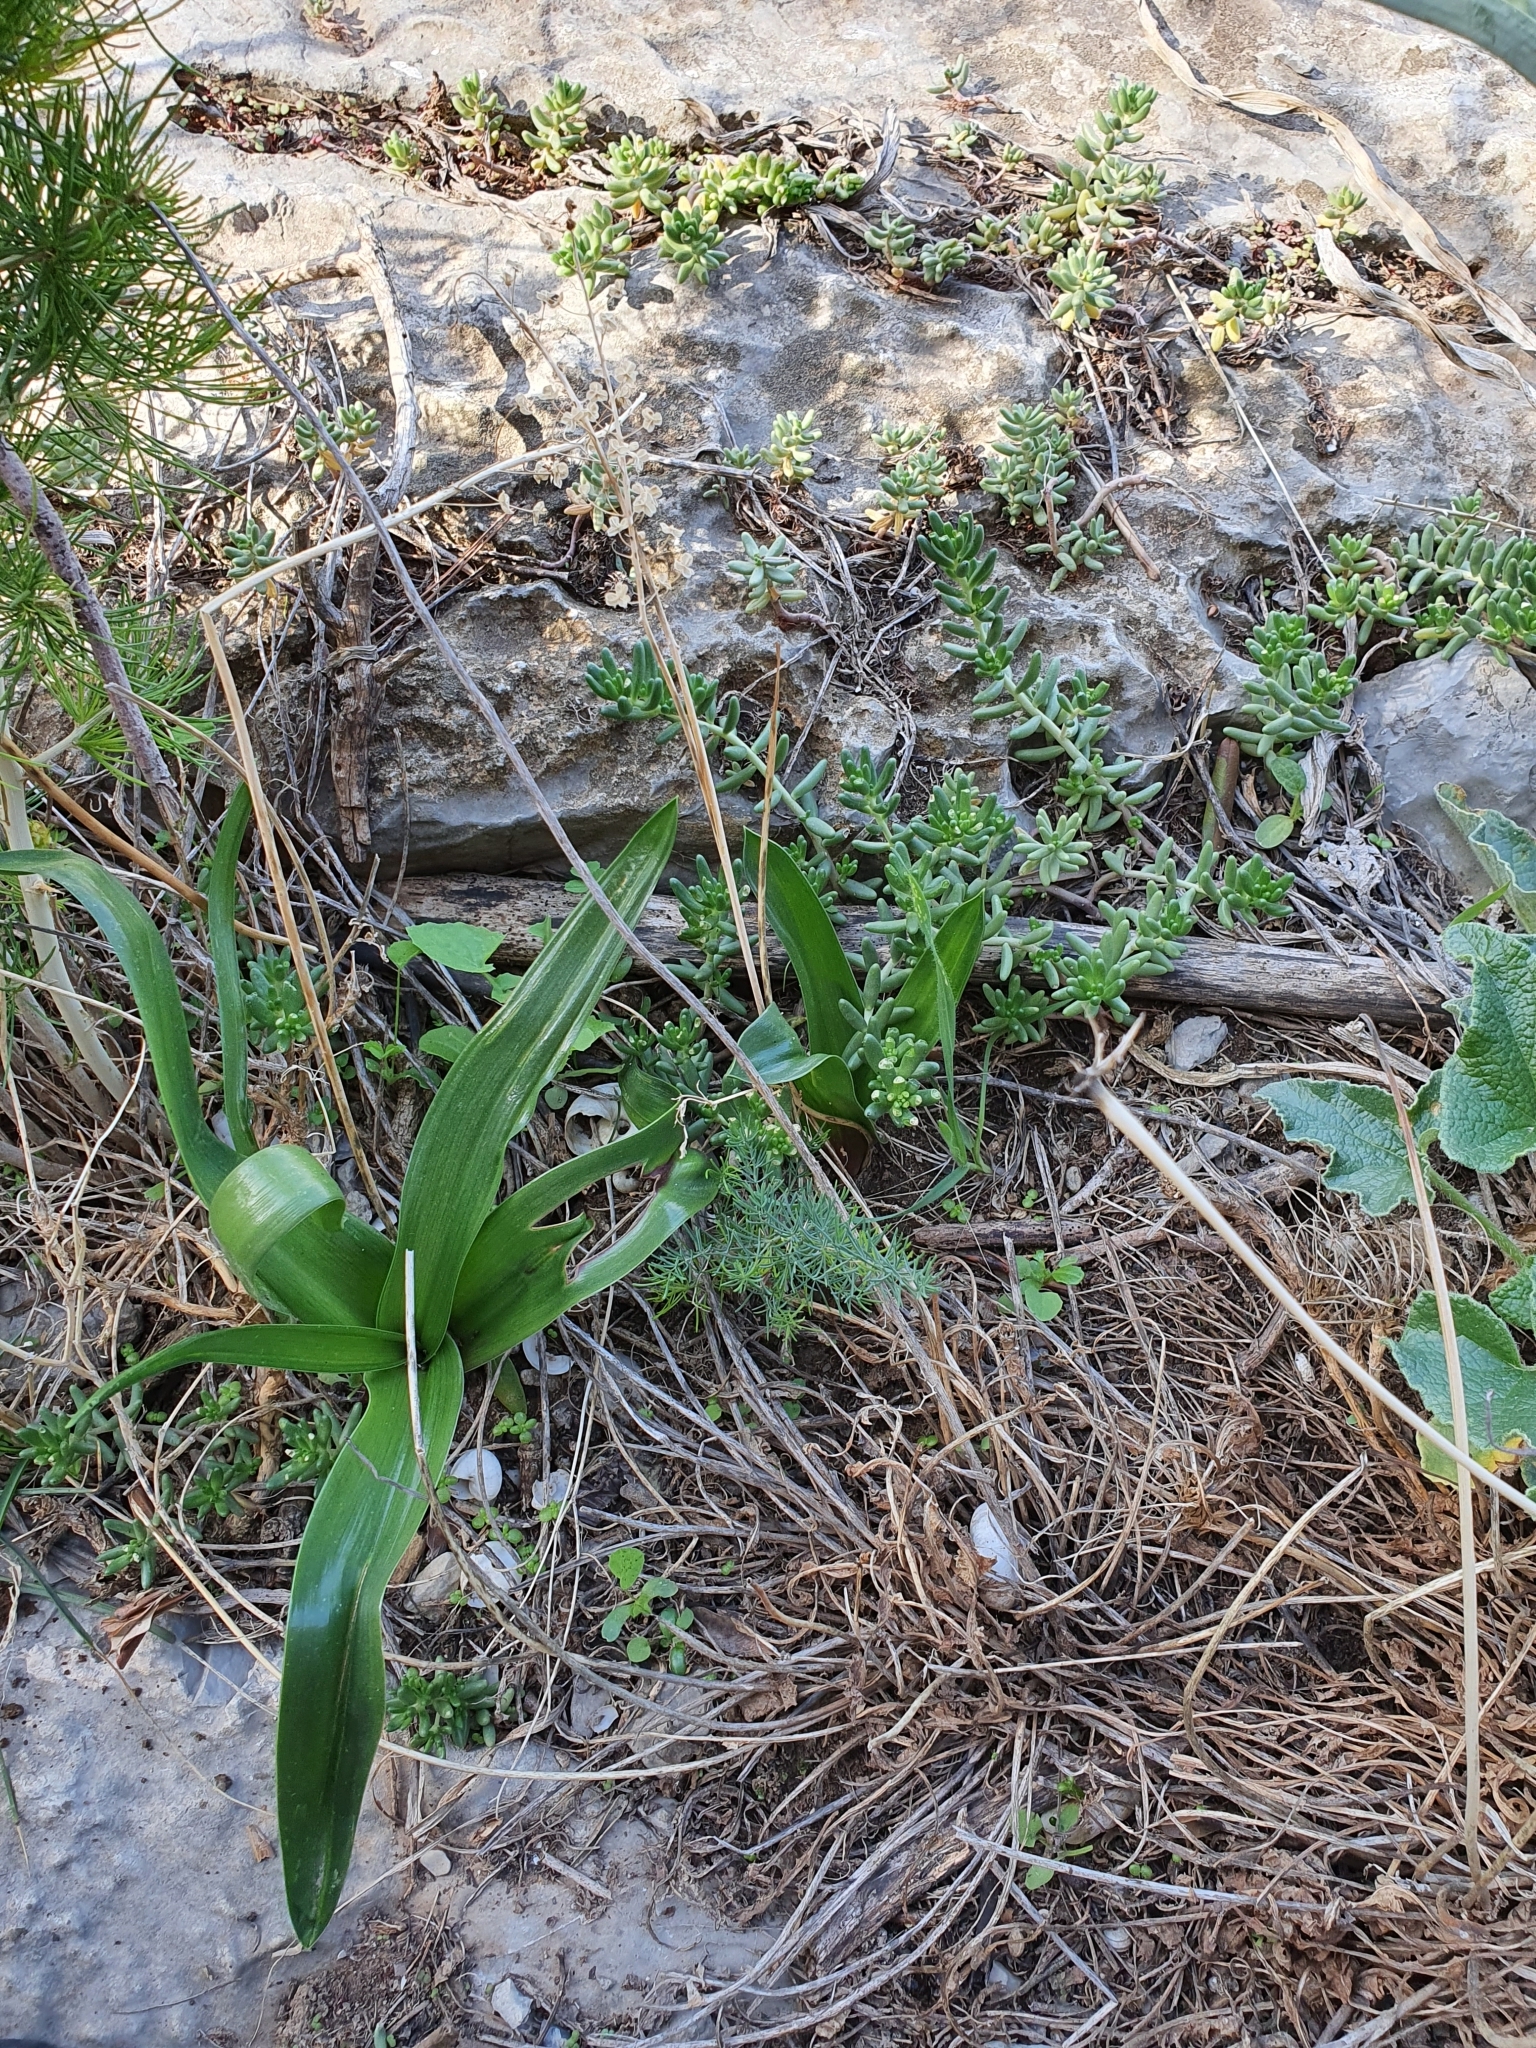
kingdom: Plantae
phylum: Tracheophyta
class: Liliopsida
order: Asparagales
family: Asparagaceae
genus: Prospero
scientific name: Prospero obtusifolium
